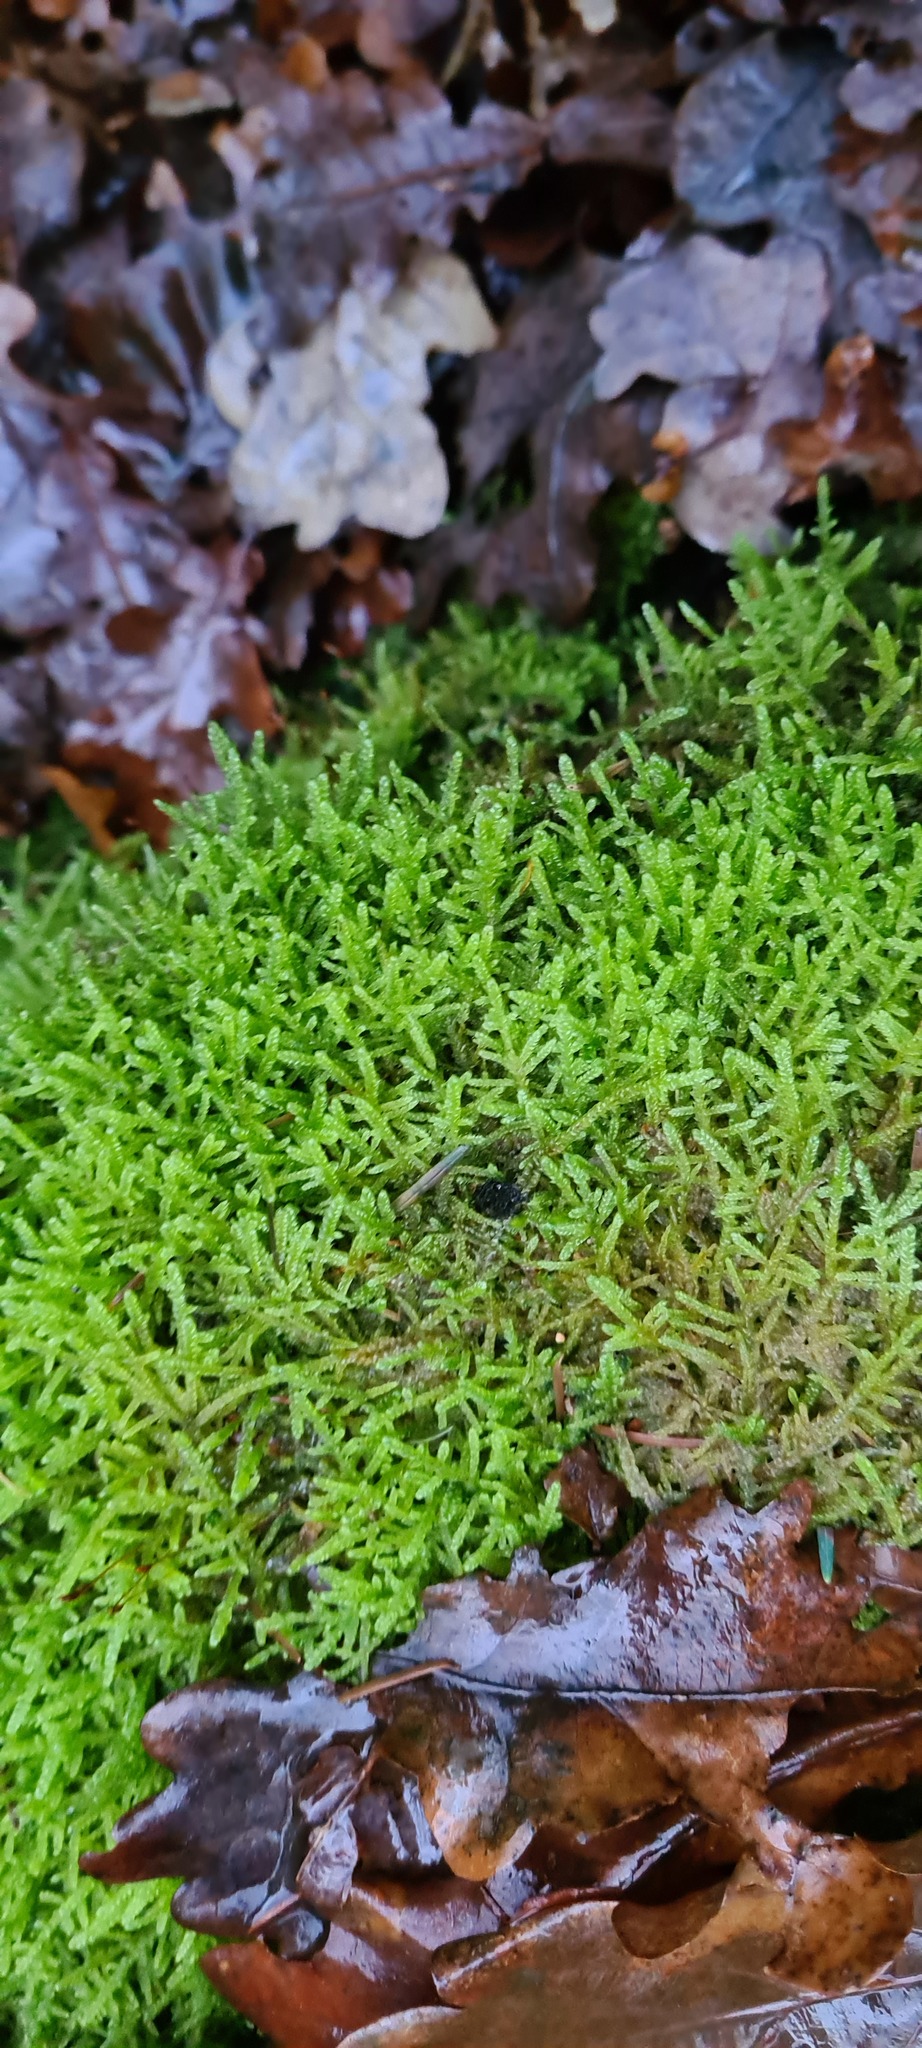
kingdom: Plantae
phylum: Bryophyta
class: Bryopsida
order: Hypnales
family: Hypnaceae
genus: Hypnum
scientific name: Hypnum cupressiforme
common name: Cypress-leaved plait-moss
